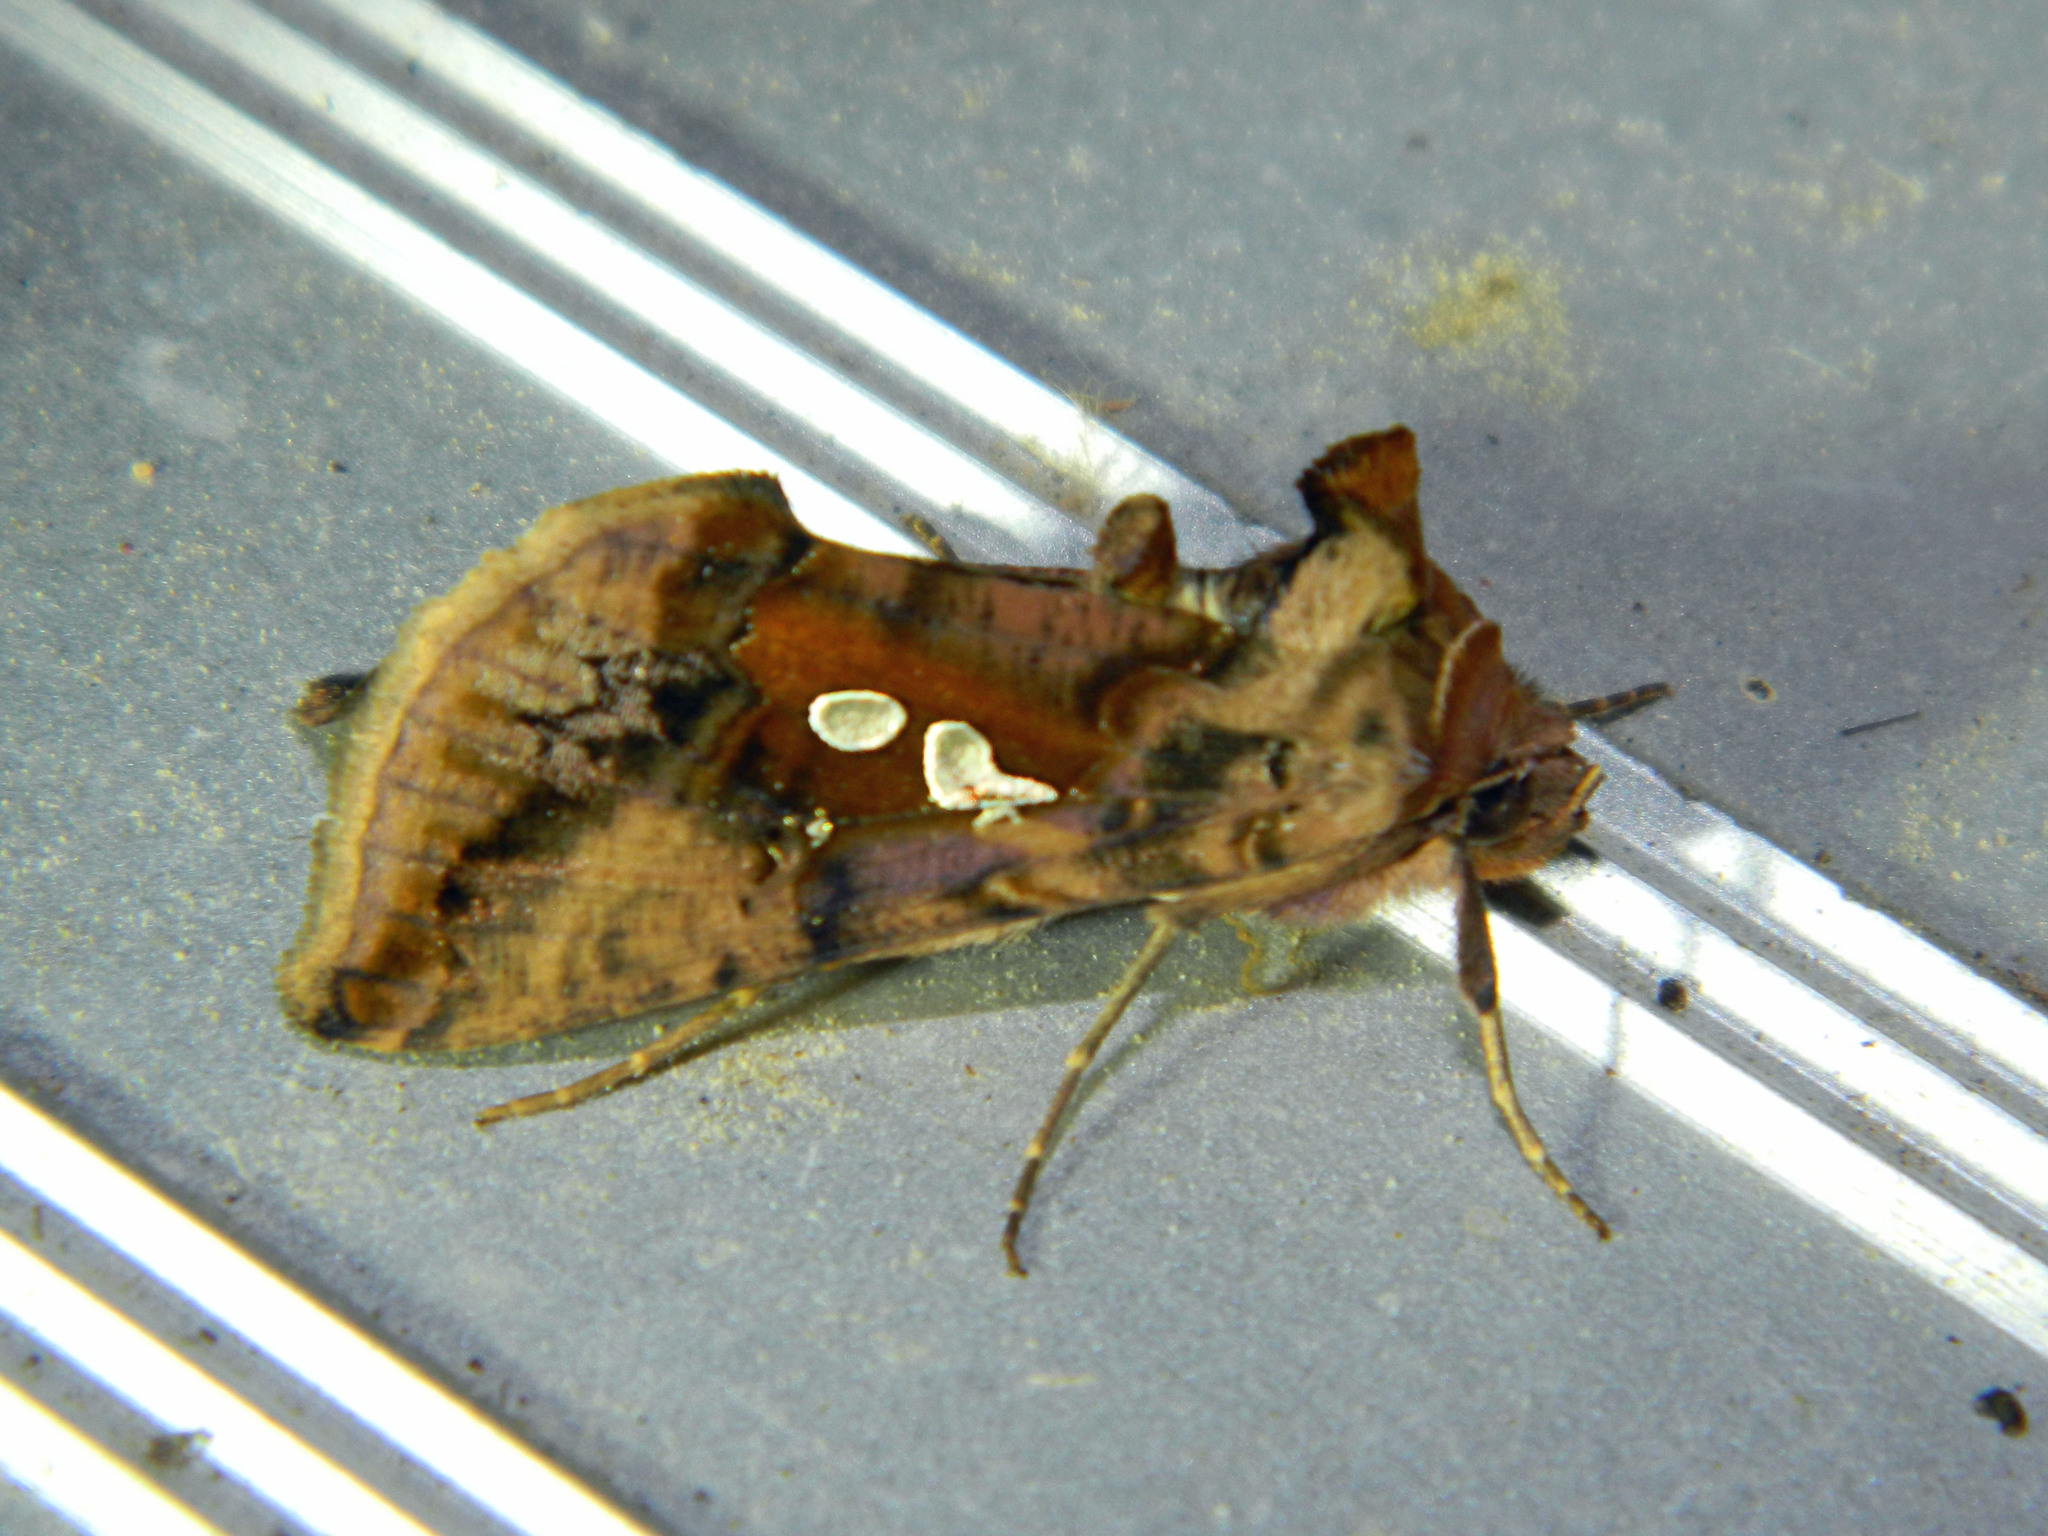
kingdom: Animalia
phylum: Arthropoda
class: Insecta
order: Lepidoptera
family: Noctuidae
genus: Autographa
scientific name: Autographa bimaculata
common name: Double-spotted spangle
